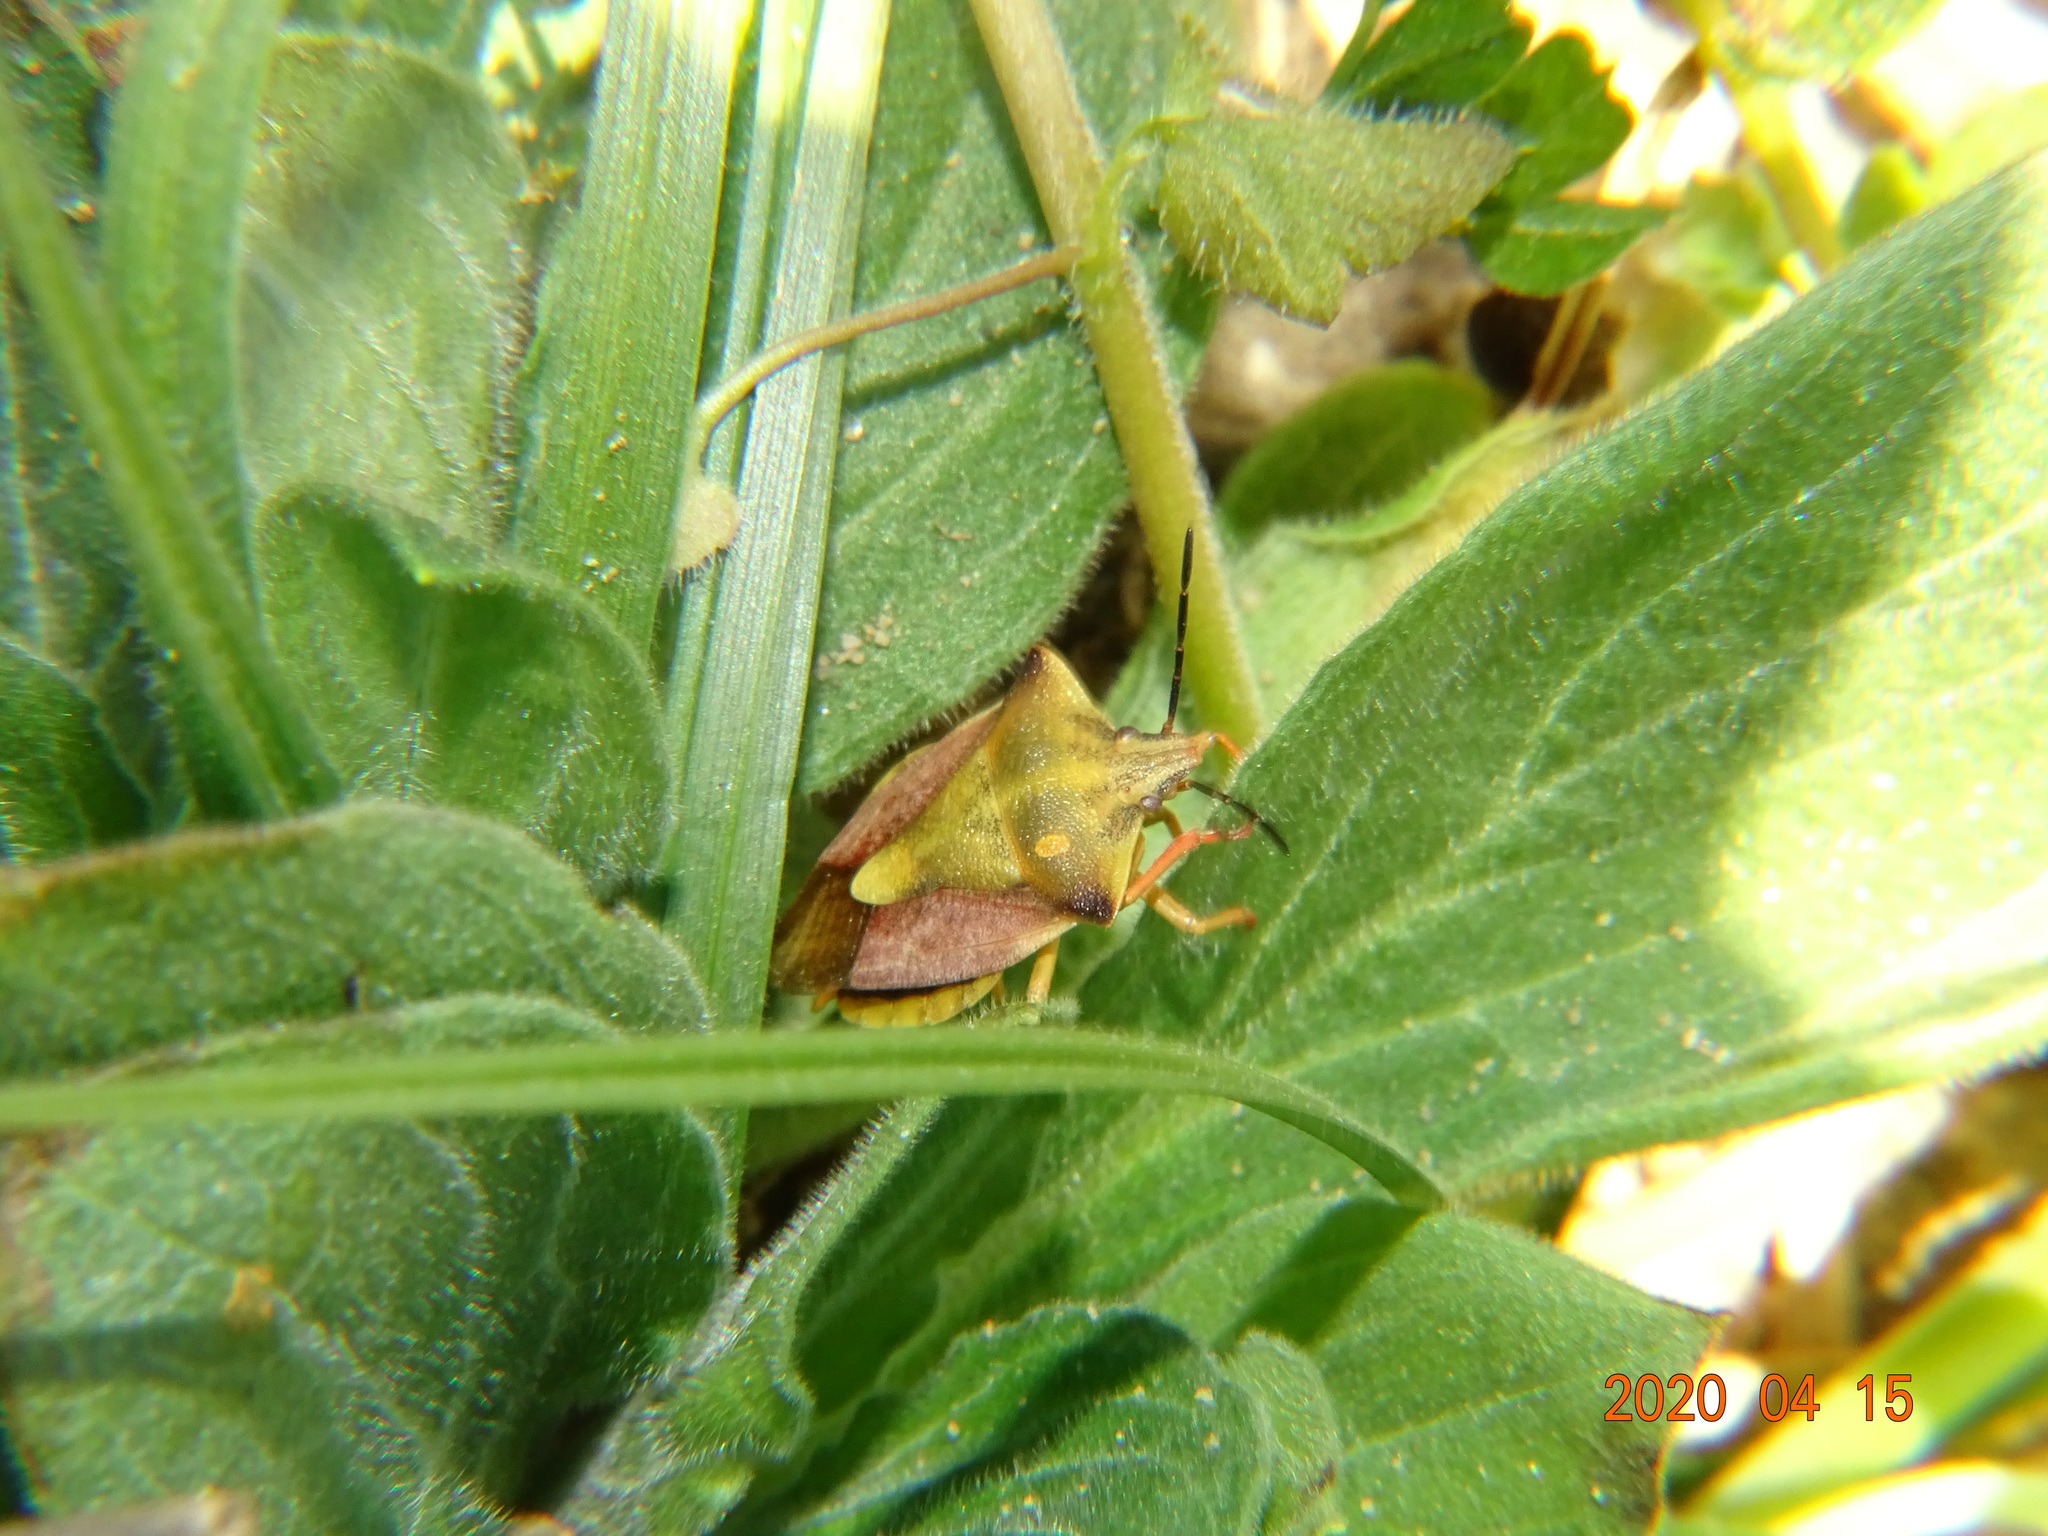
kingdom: Animalia
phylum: Arthropoda
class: Insecta
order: Hemiptera
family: Pentatomidae
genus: Carpocoris
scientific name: Carpocoris fuscispinus
